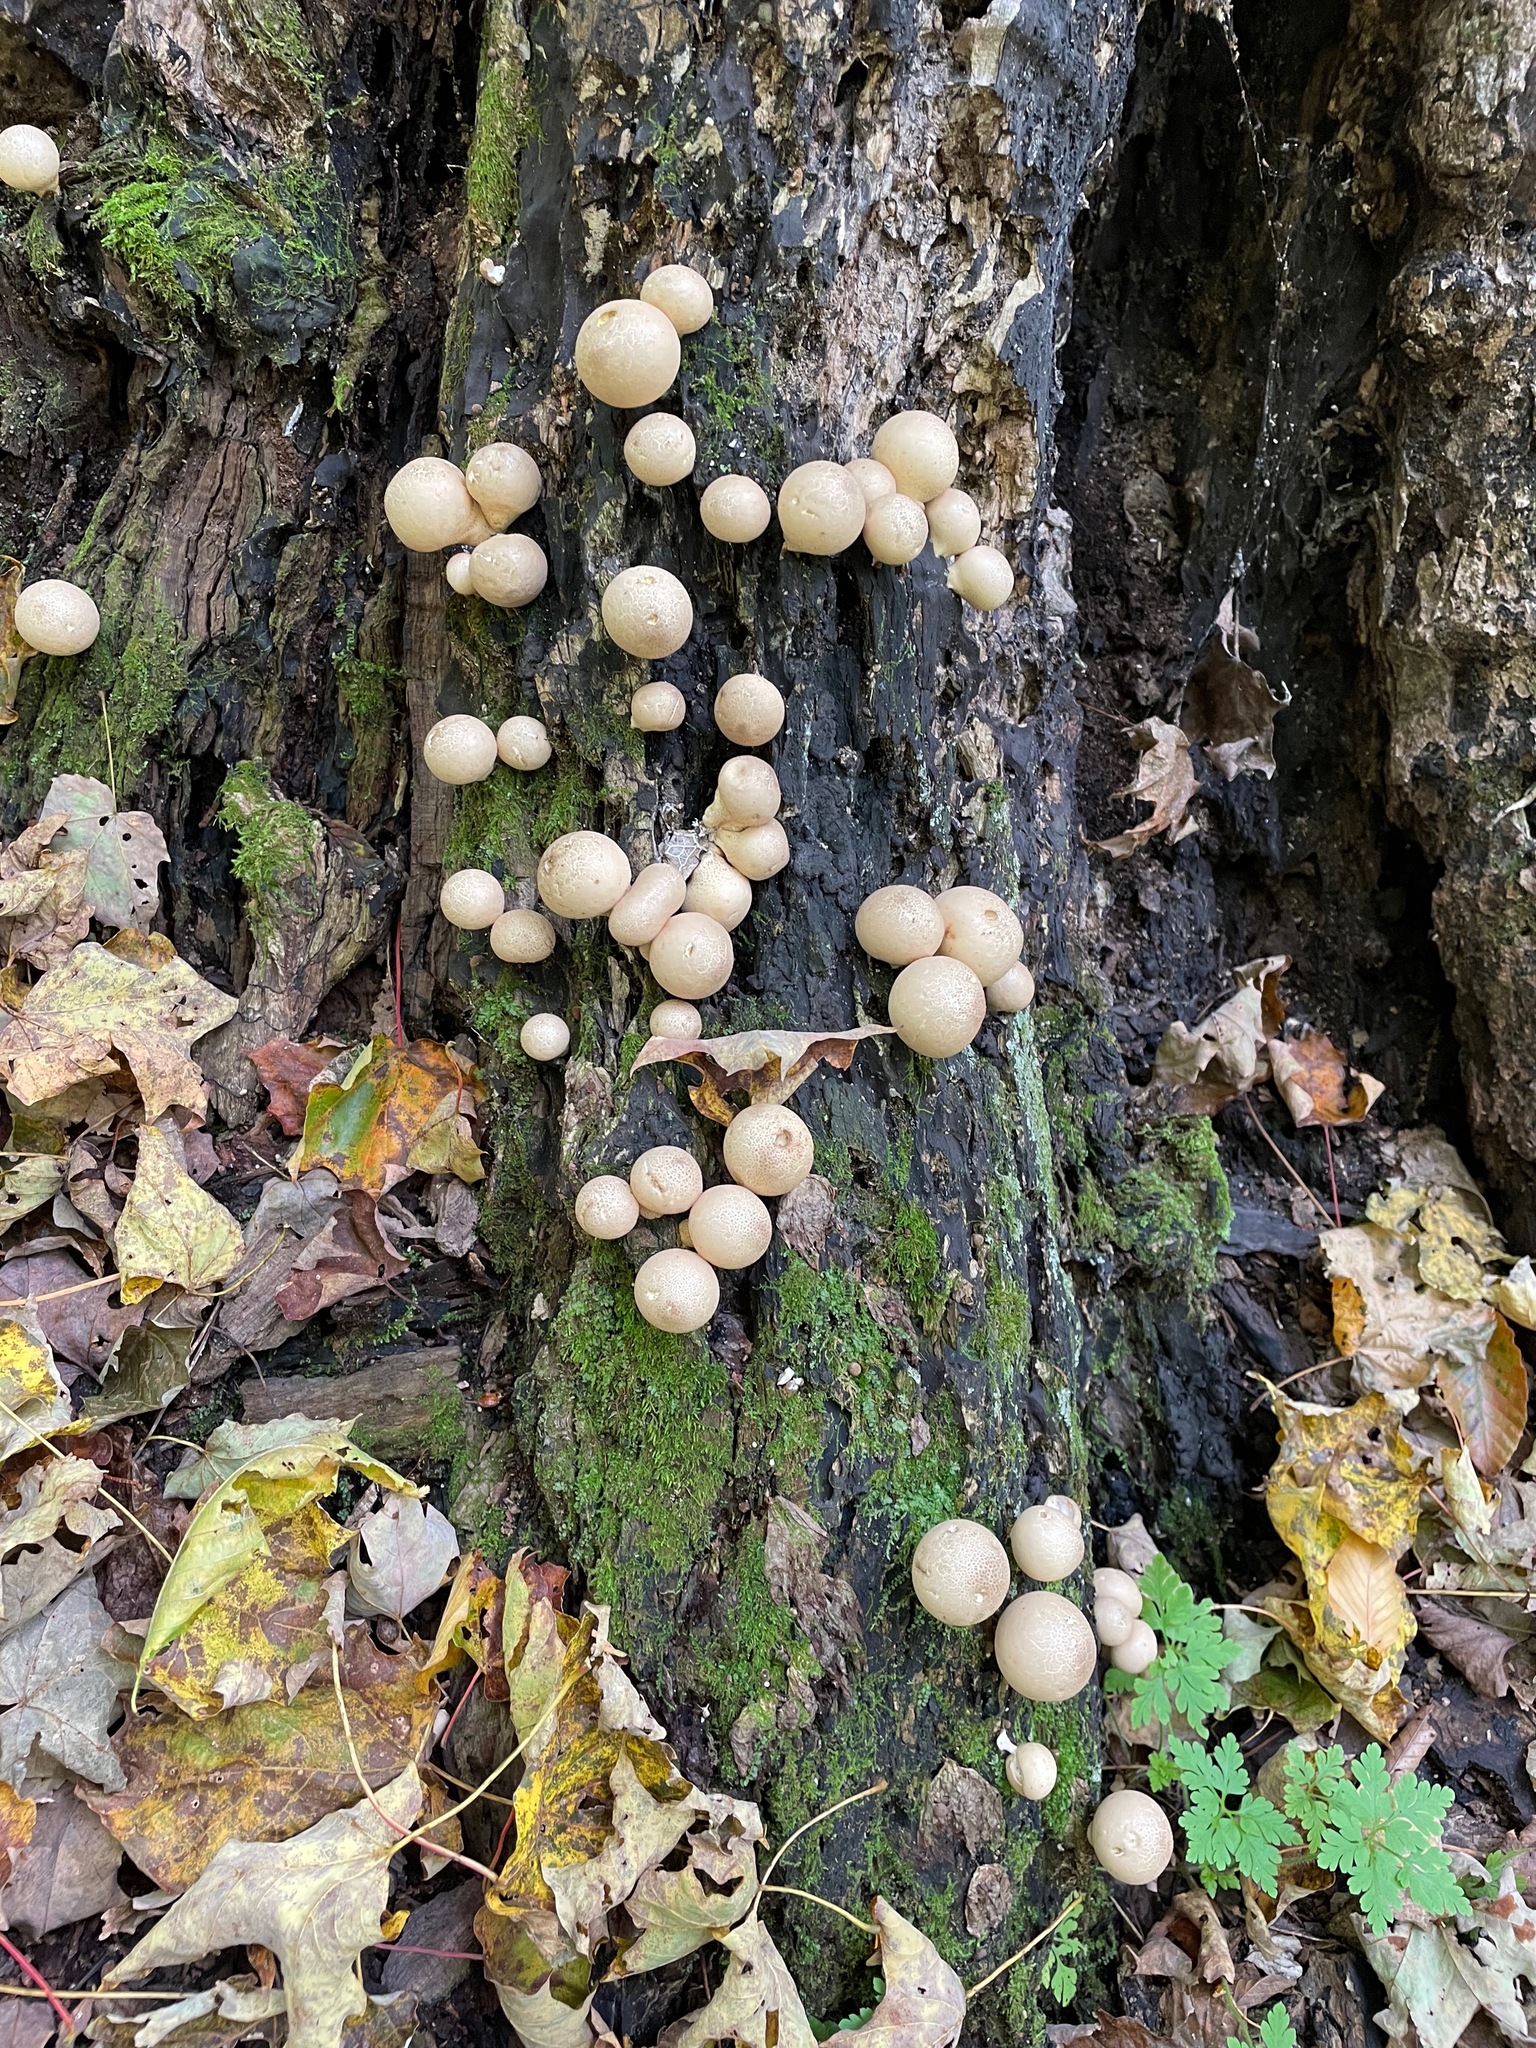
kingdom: Fungi
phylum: Basidiomycota
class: Agaricomycetes
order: Agaricales
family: Lycoperdaceae
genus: Apioperdon
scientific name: Apioperdon pyriforme
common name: Pear-shaped puffball
